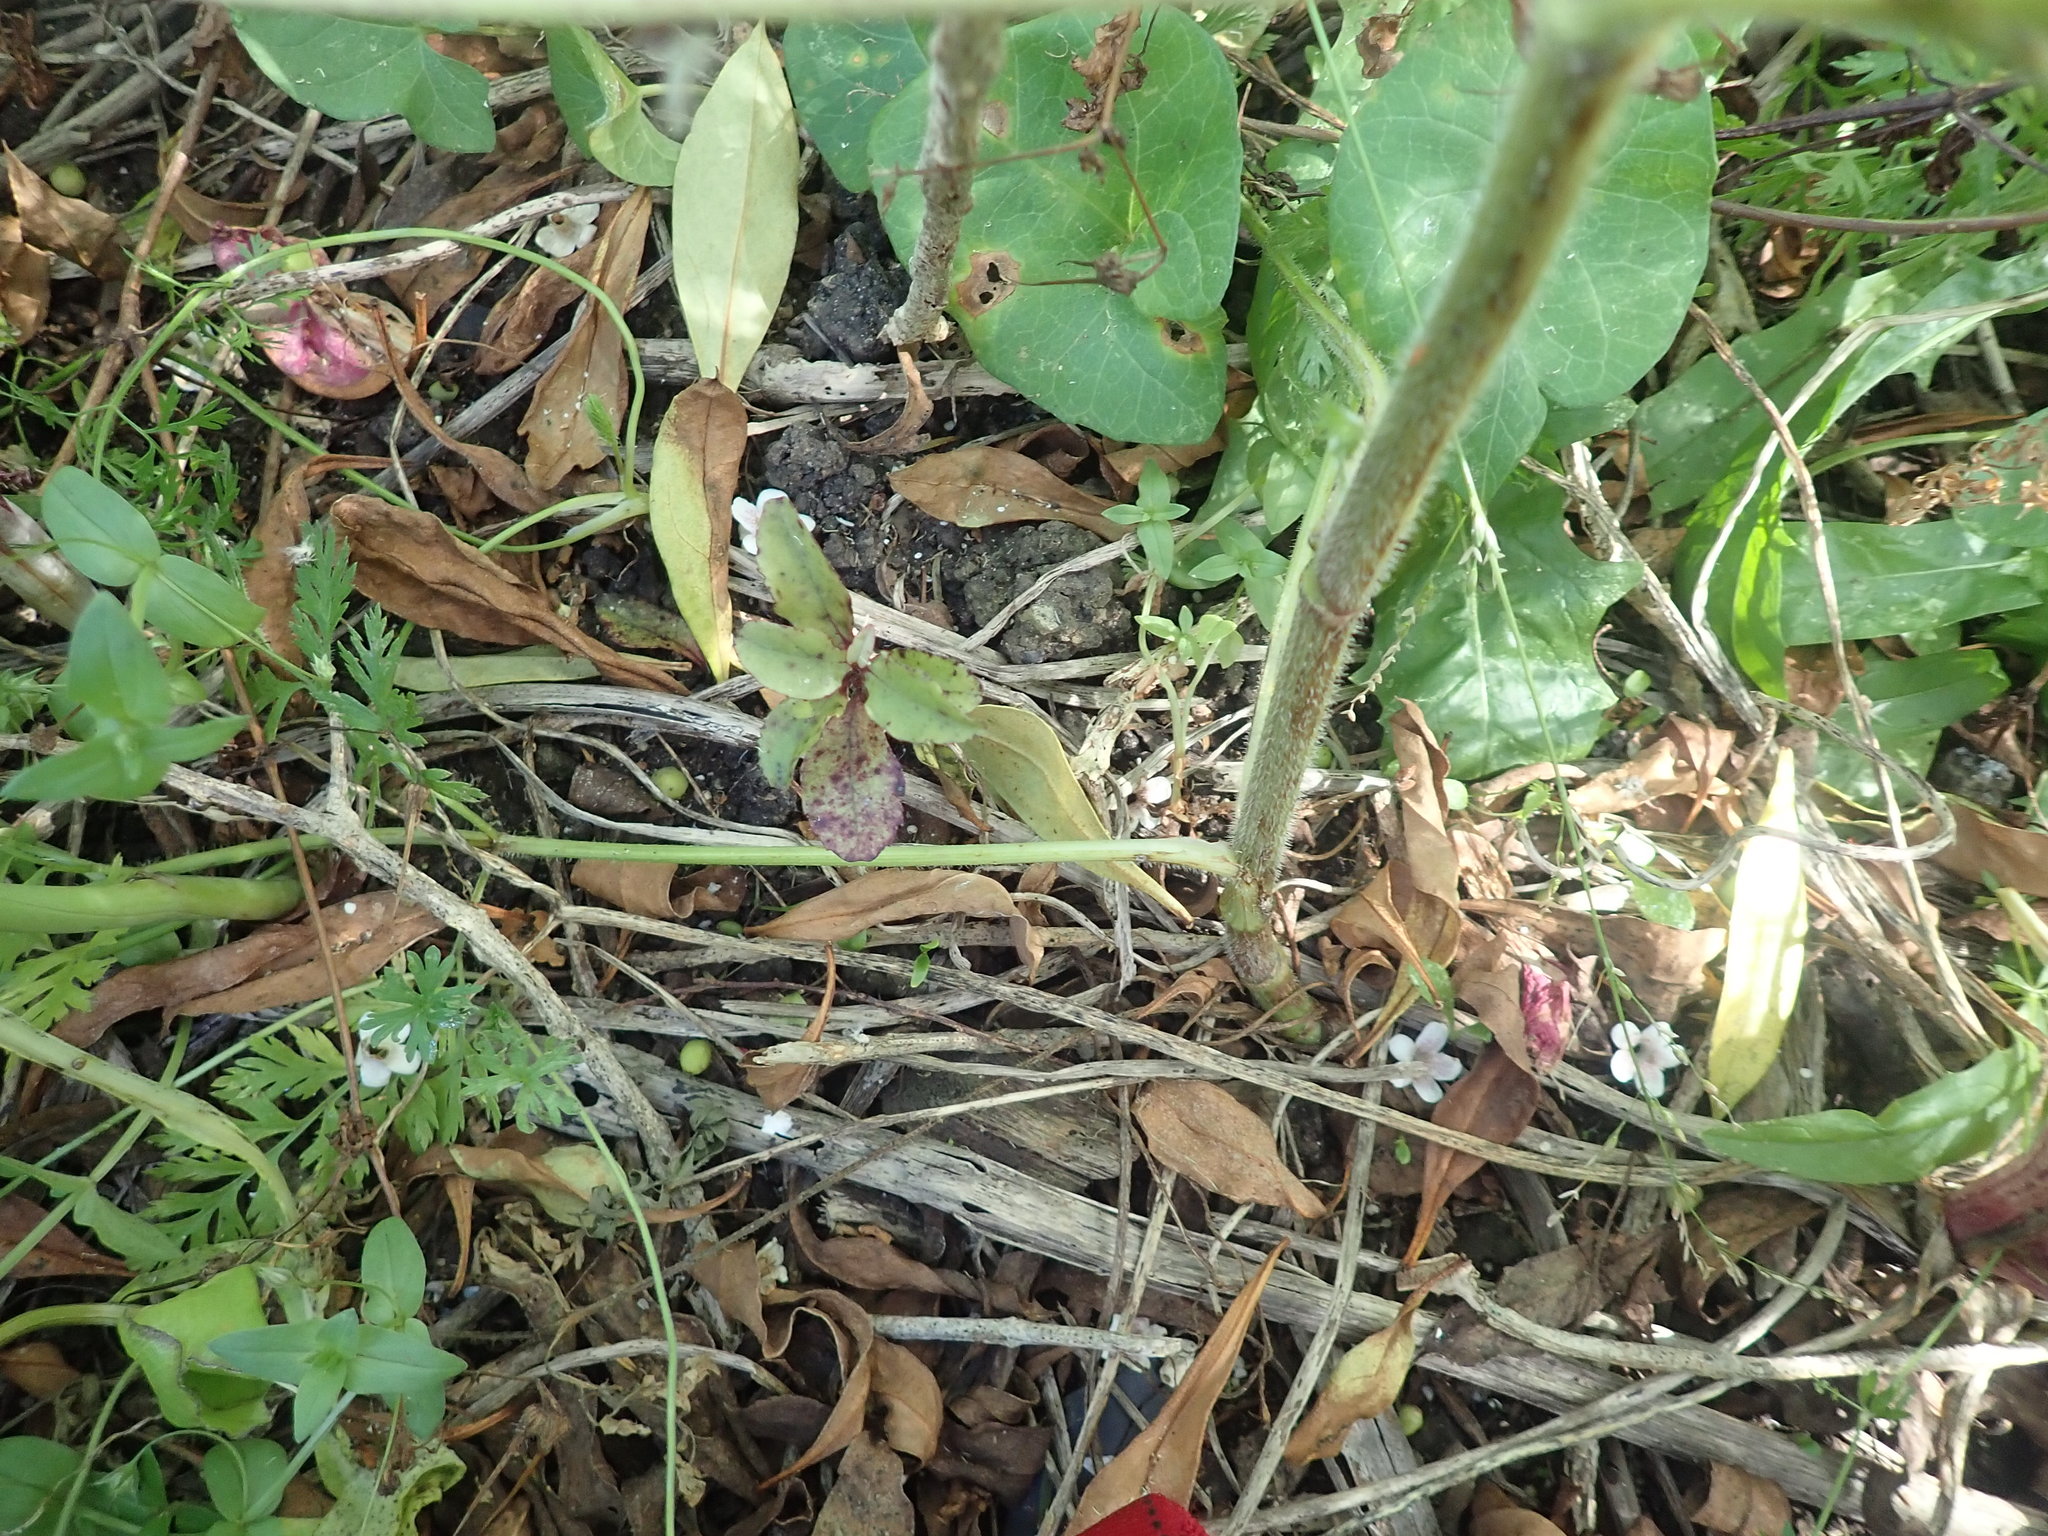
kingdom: Plantae
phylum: Tracheophyta
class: Magnoliopsida
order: Solanales
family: Convolvulaceae
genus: Calystegia
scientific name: Calystegia sepium
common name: Hedge bindweed
